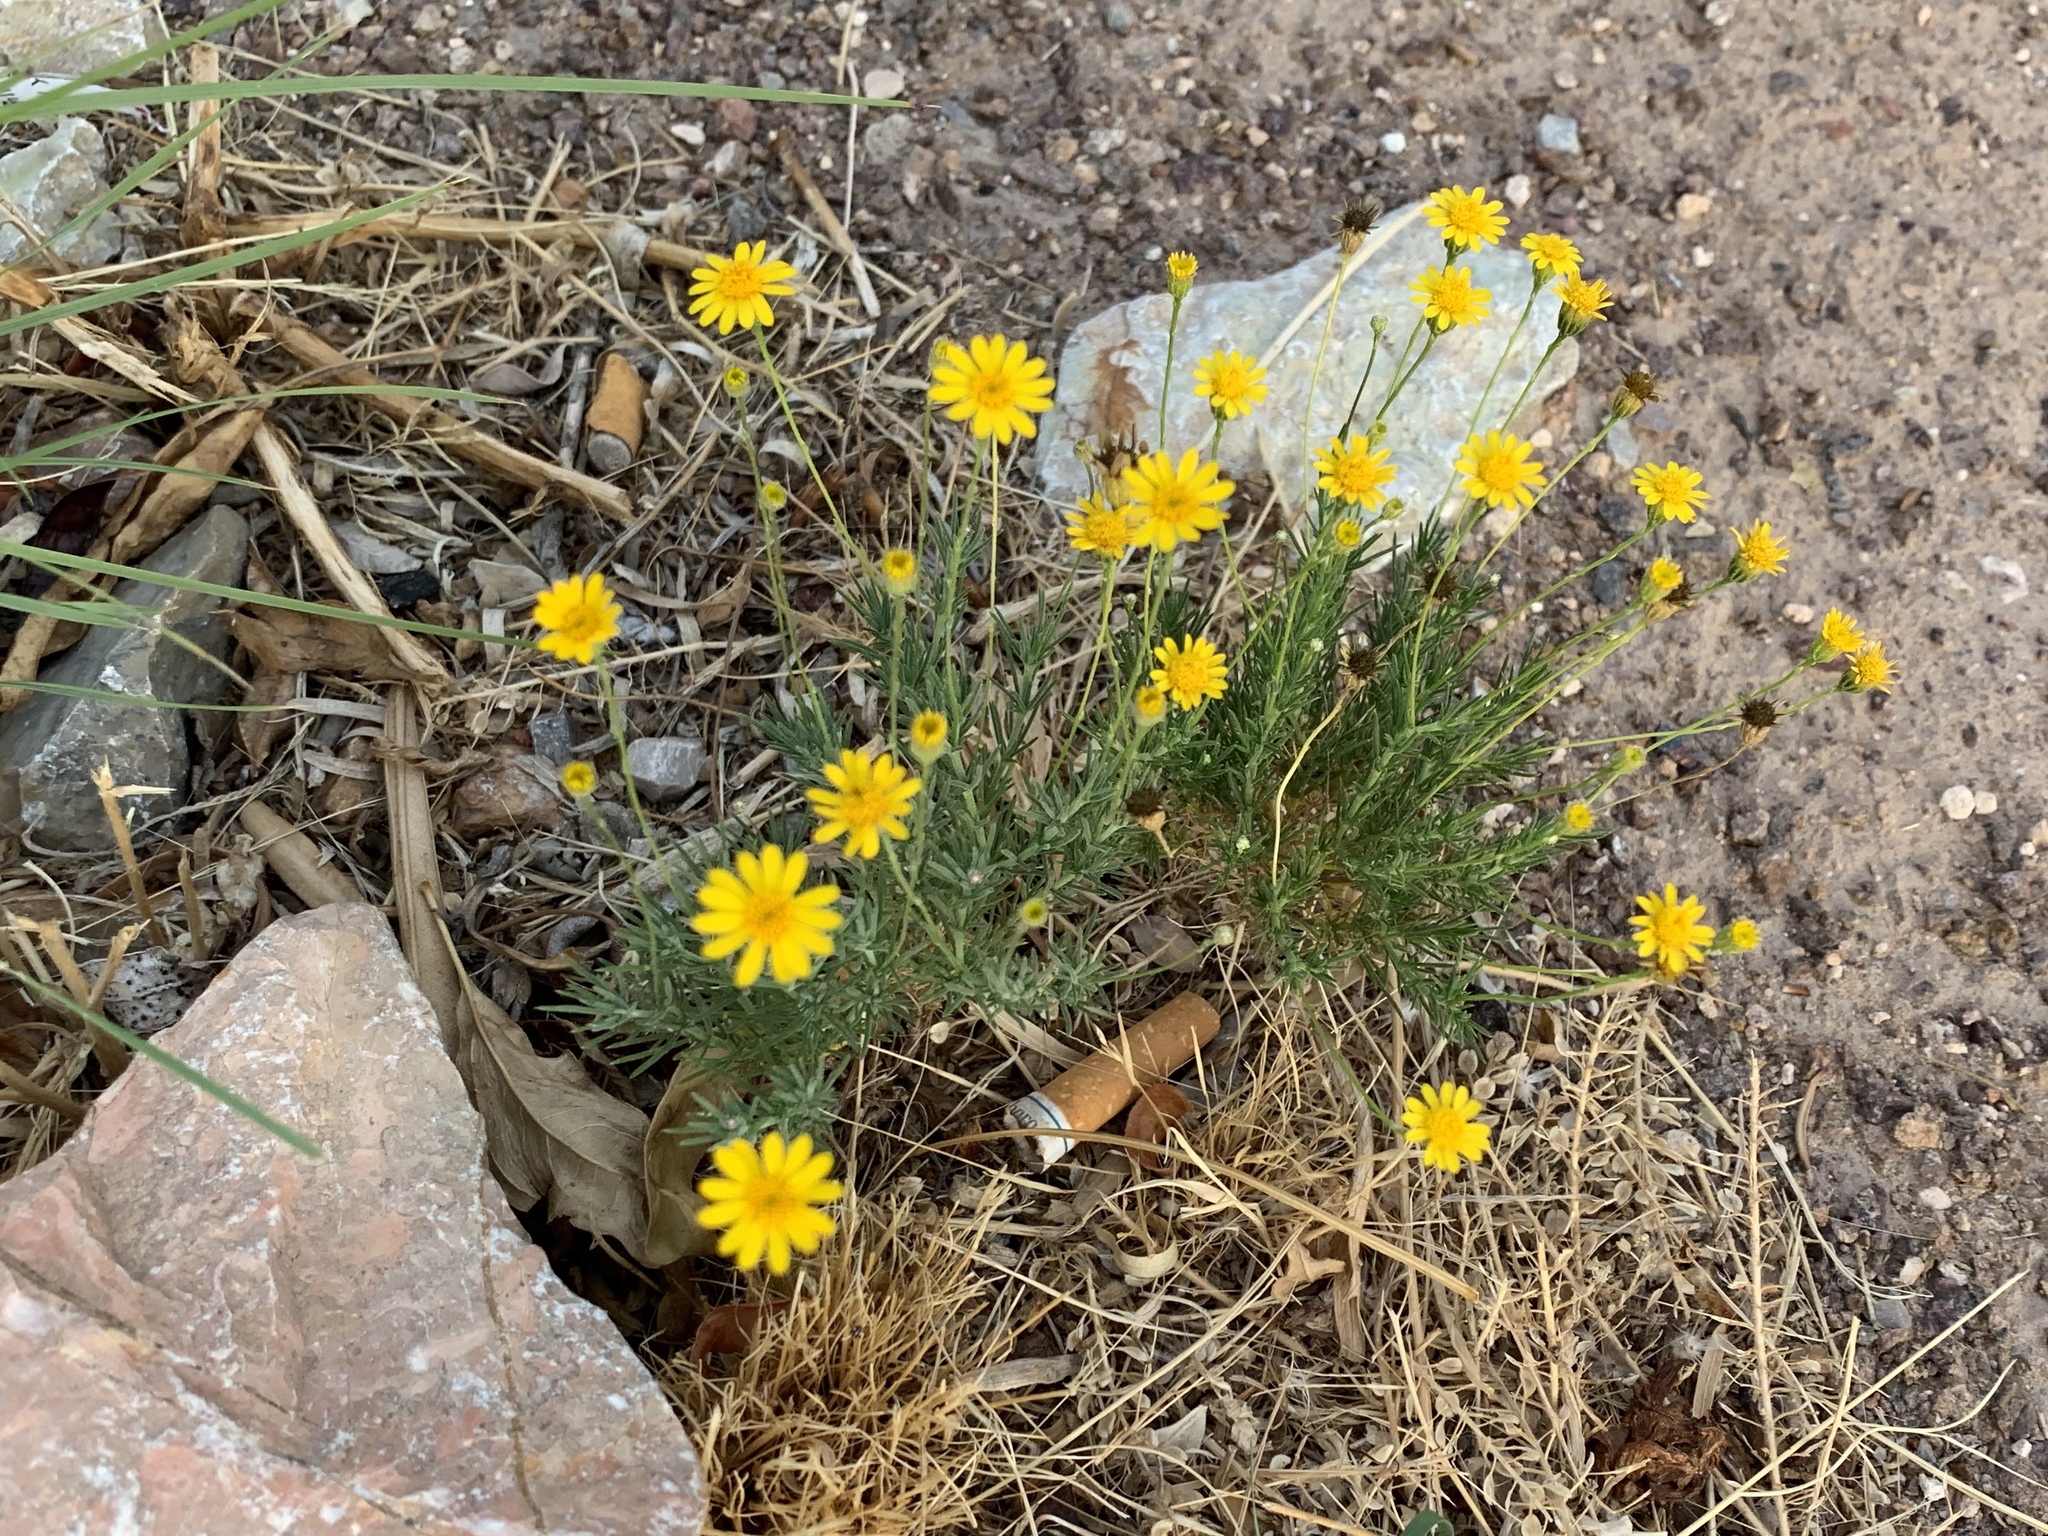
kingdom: Plantae
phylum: Tracheophyta
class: Magnoliopsida
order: Asterales
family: Asteraceae
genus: Thymophylla
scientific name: Thymophylla pentachaeta
